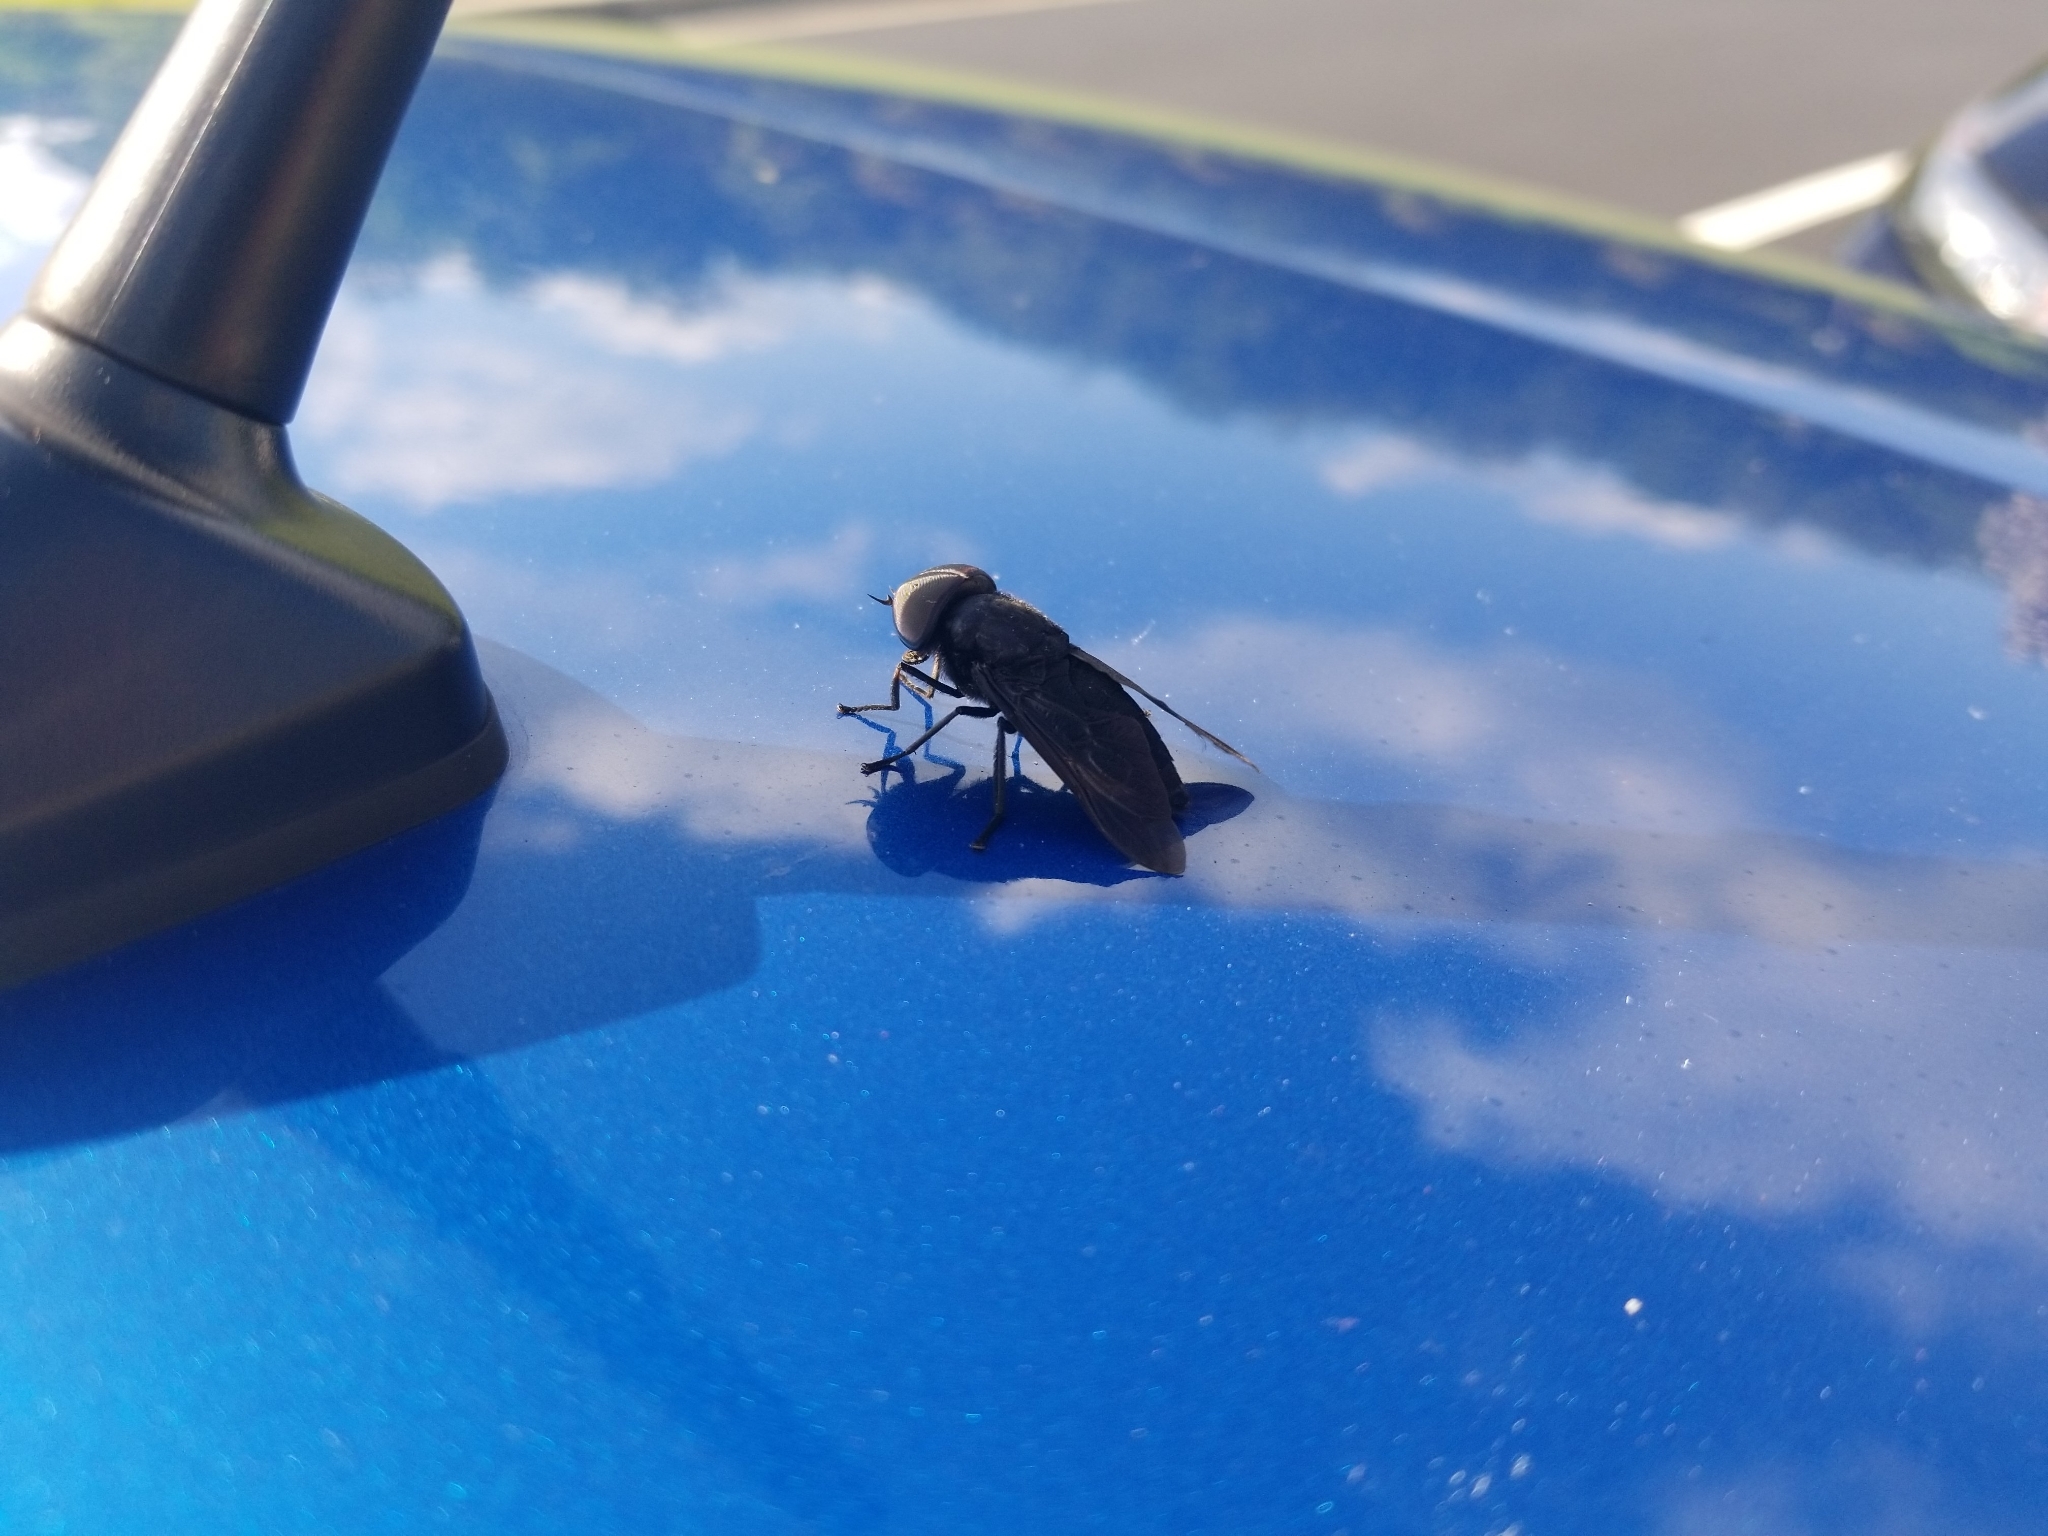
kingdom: Animalia
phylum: Arthropoda
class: Insecta
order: Diptera
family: Tabanidae
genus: Tabanus
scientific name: Tabanus atratus
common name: Black horse fly
